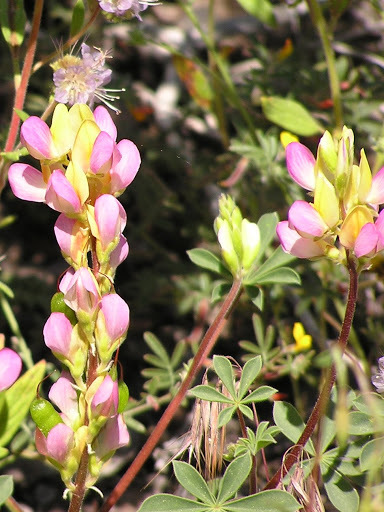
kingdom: Plantae
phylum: Tracheophyta
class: Magnoliopsida
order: Fabales
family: Fabaceae
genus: Lupinus
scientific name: Lupinus stiversii
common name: Harlequin lupine
